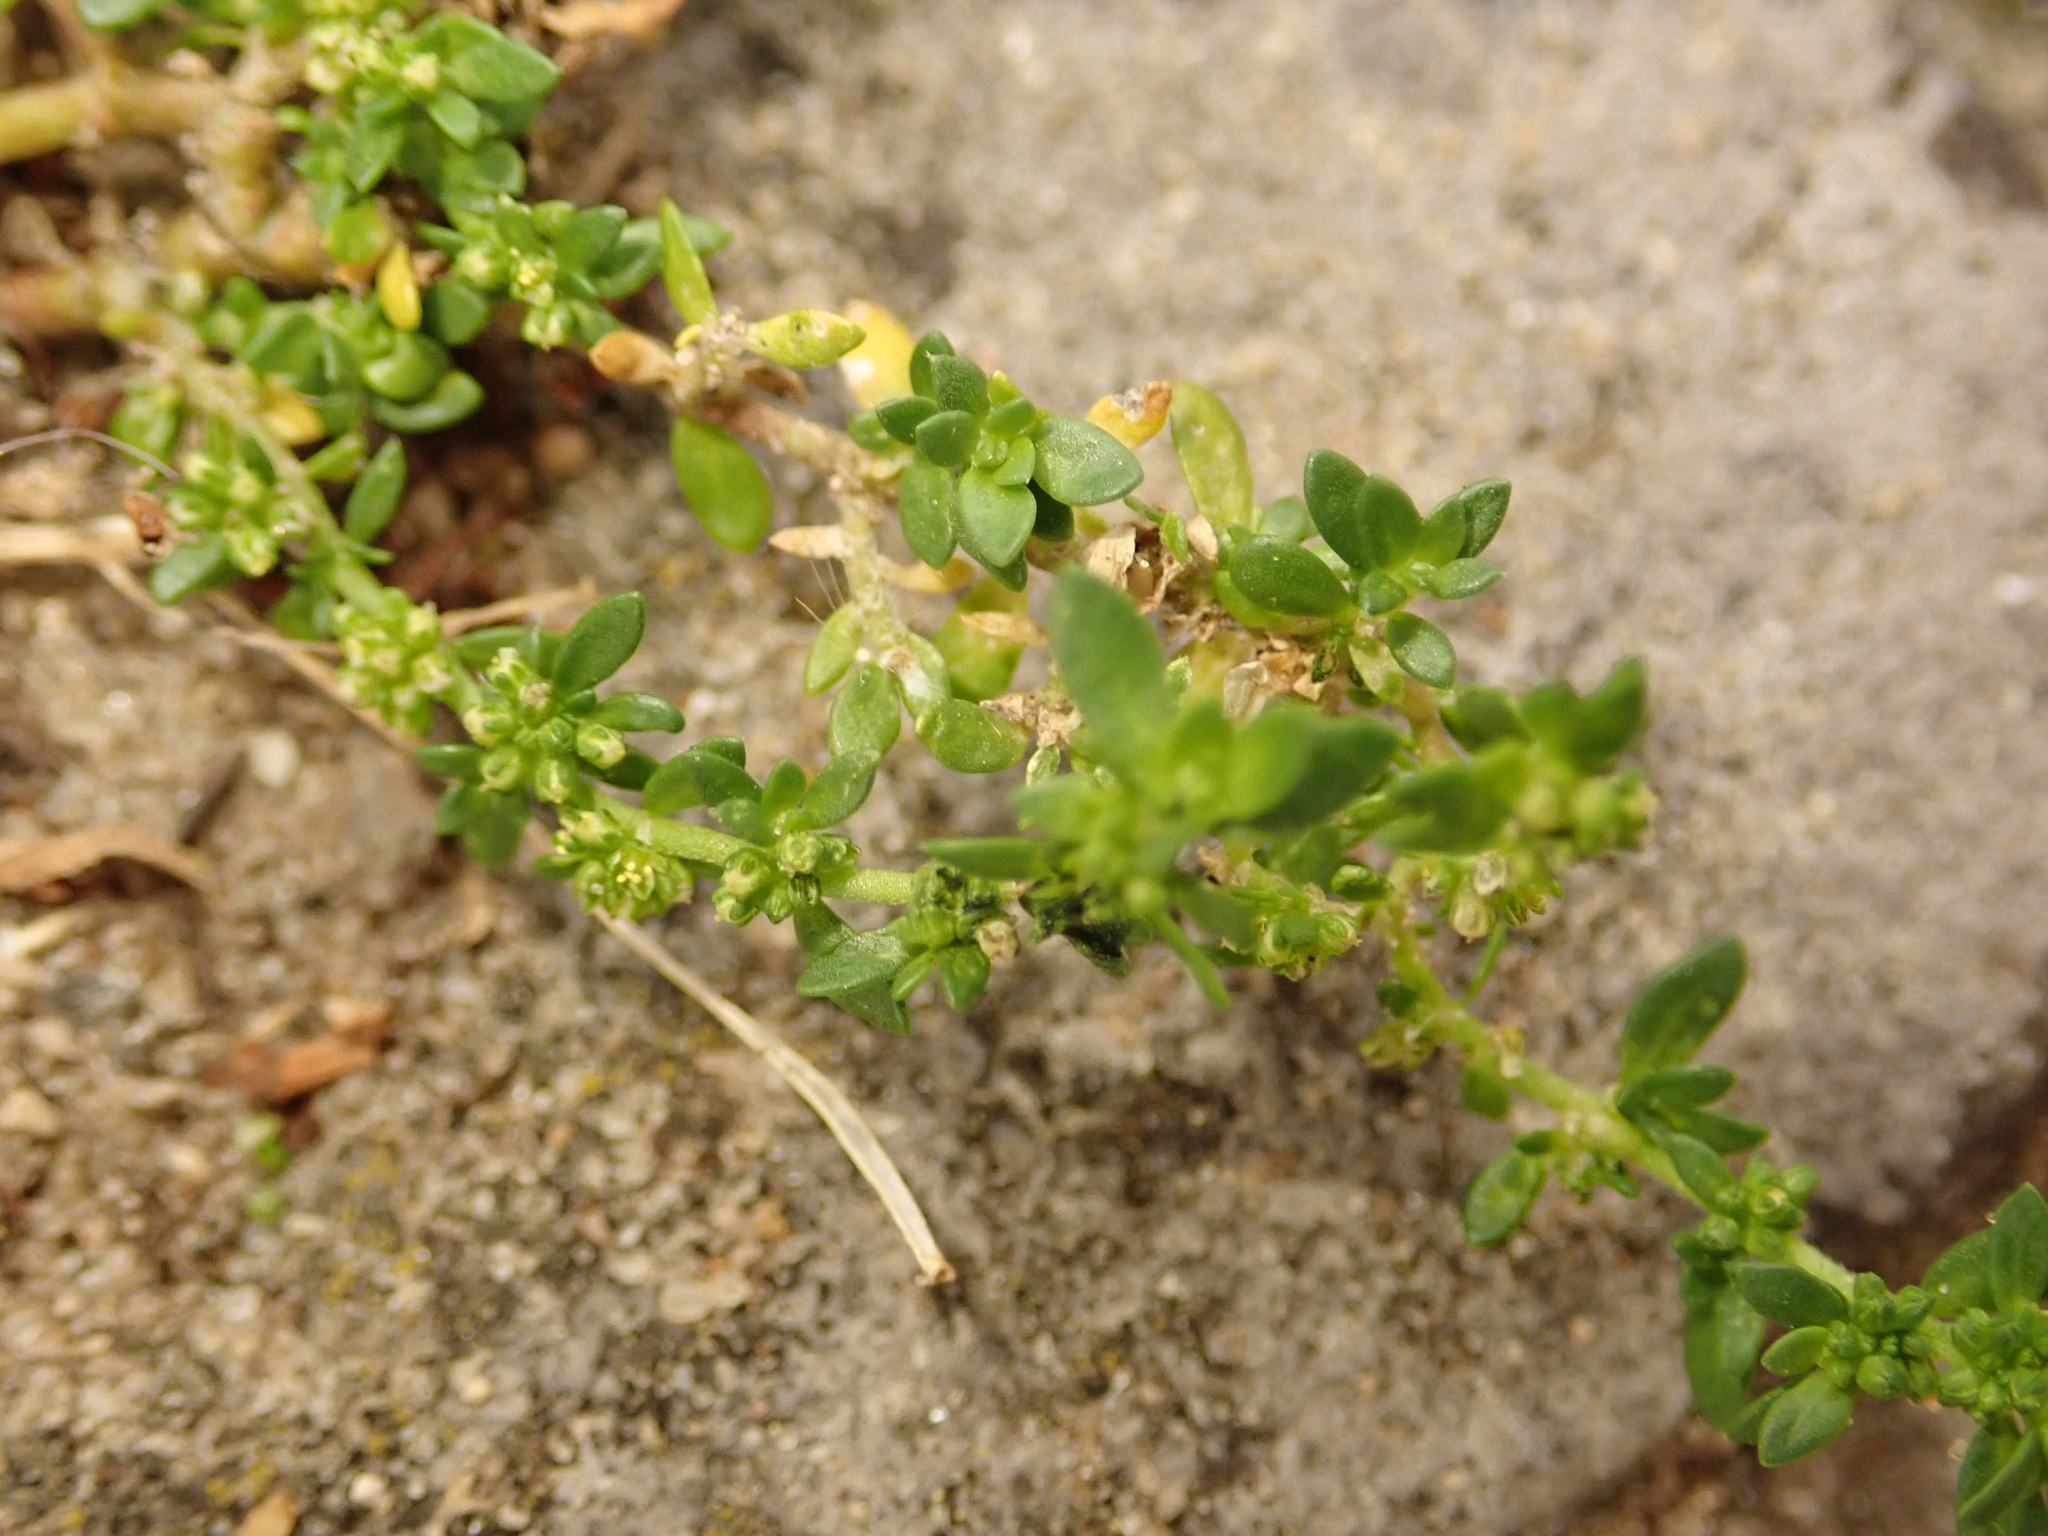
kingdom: Plantae
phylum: Tracheophyta
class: Magnoliopsida
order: Caryophyllales
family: Caryophyllaceae
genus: Herniaria
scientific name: Herniaria glabra
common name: Smooth rupturewort
